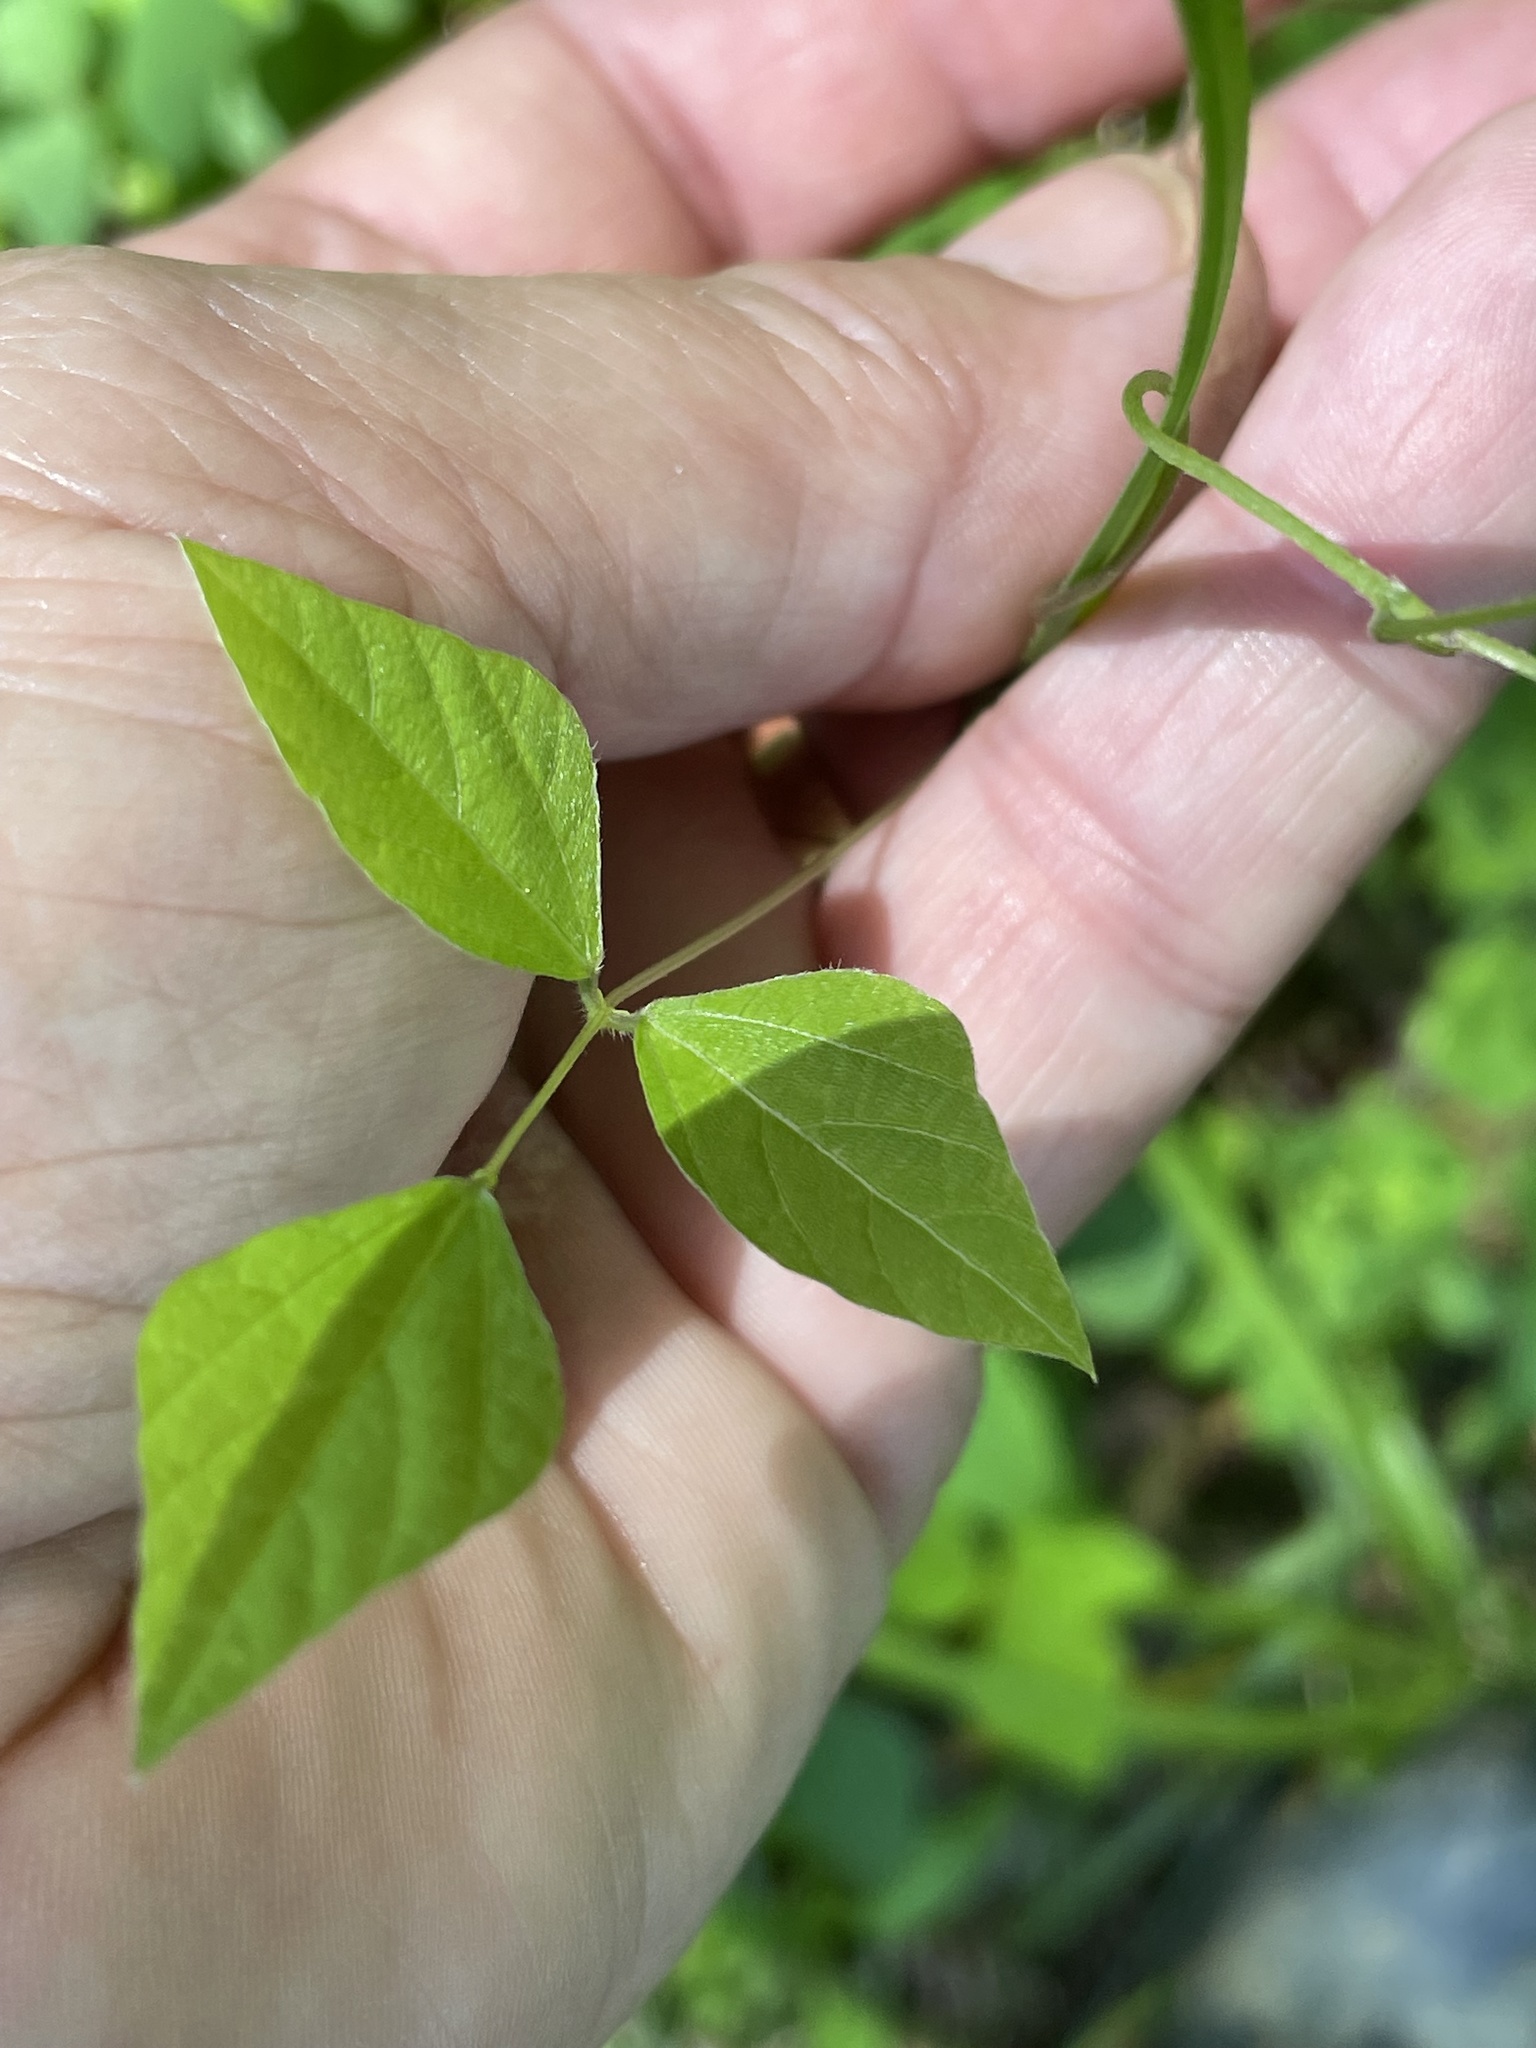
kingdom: Plantae
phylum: Tracheophyta
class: Magnoliopsida
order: Fabales
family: Fabaceae
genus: Amphicarpaea
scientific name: Amphicarpaea bracteata
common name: American hog peanut
